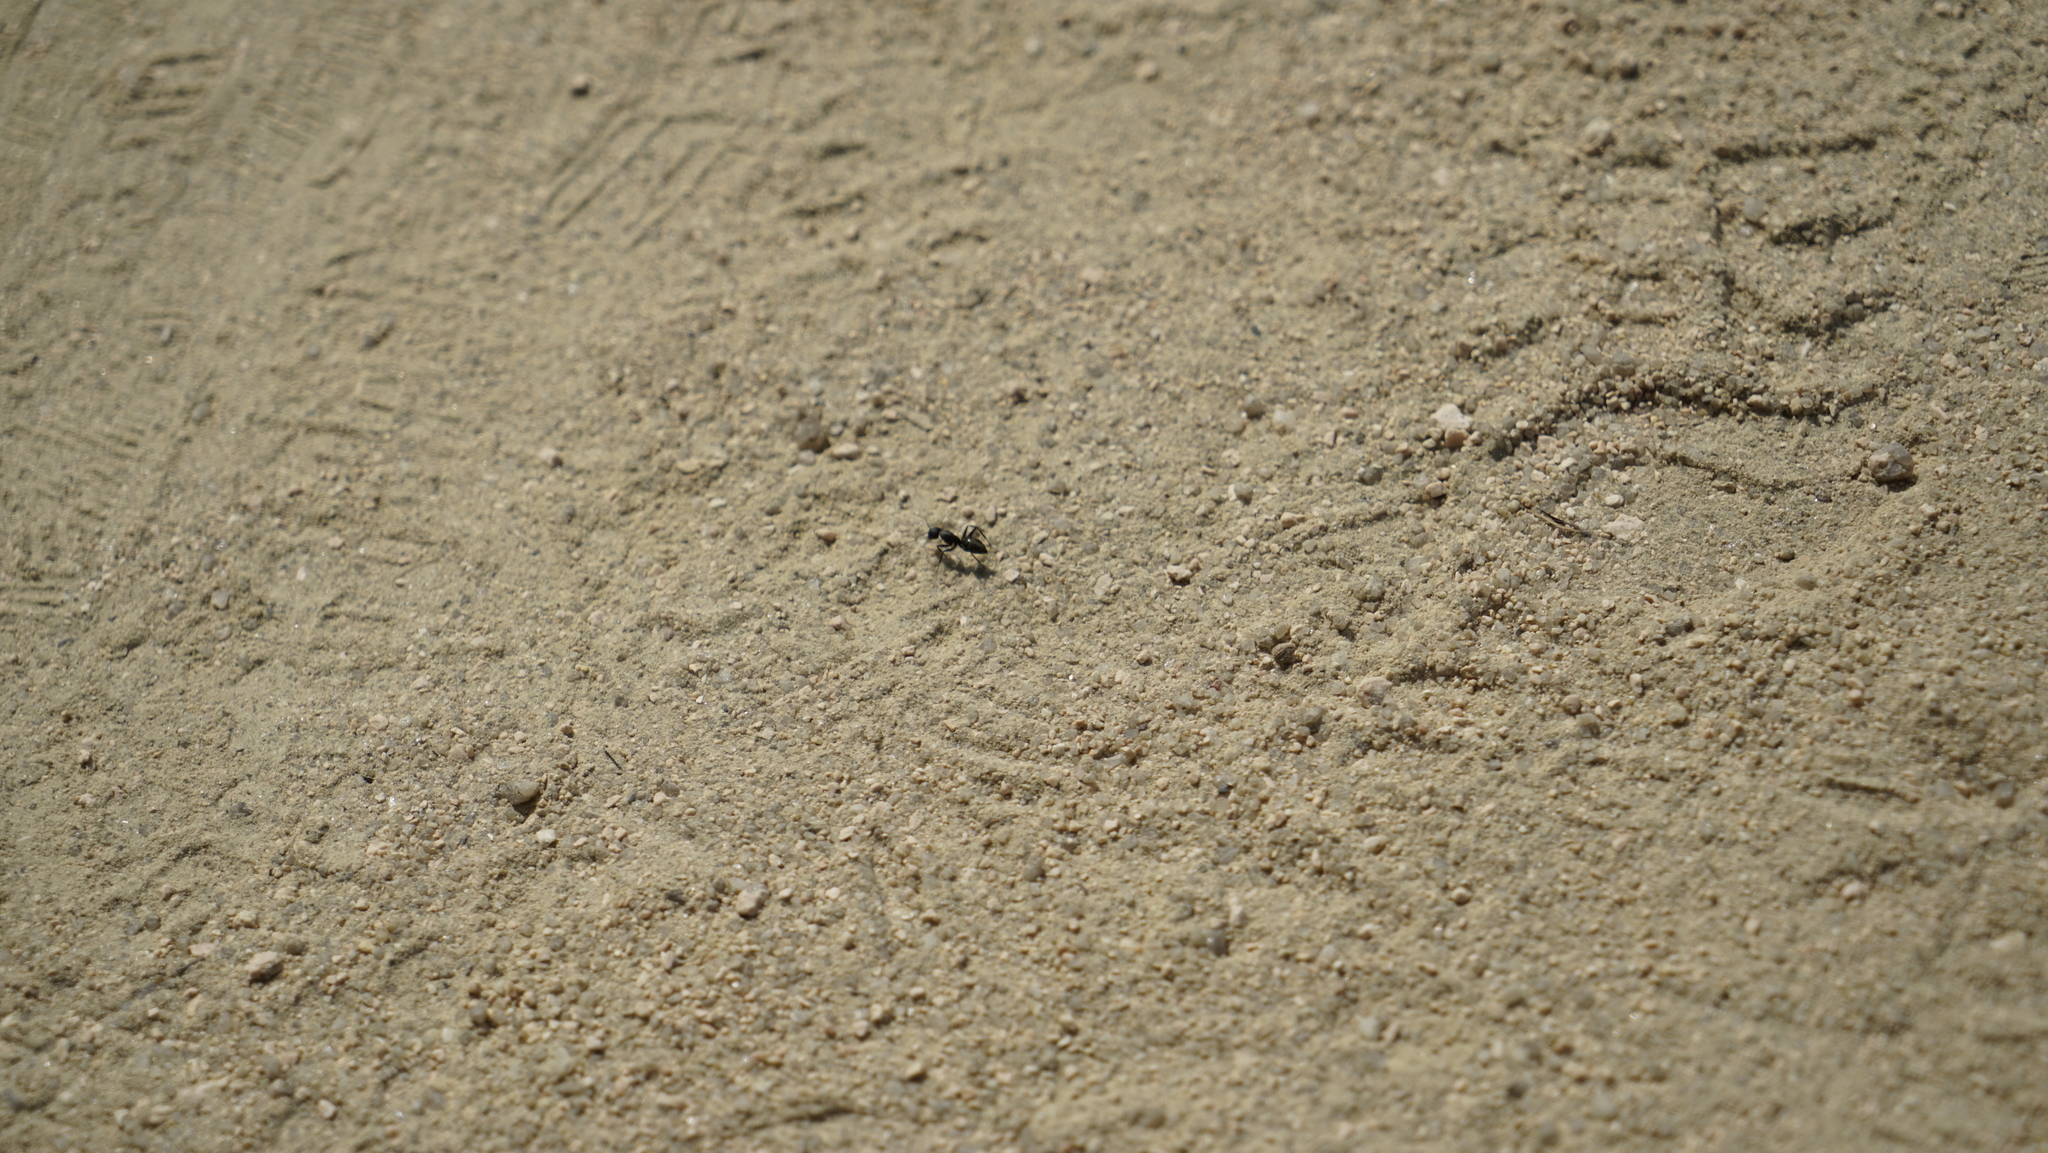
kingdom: Animalia
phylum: Arthropoda
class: Insecta
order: Hymenoptera
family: Formicidae
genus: Camponotus
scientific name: Camponotus japonicus
